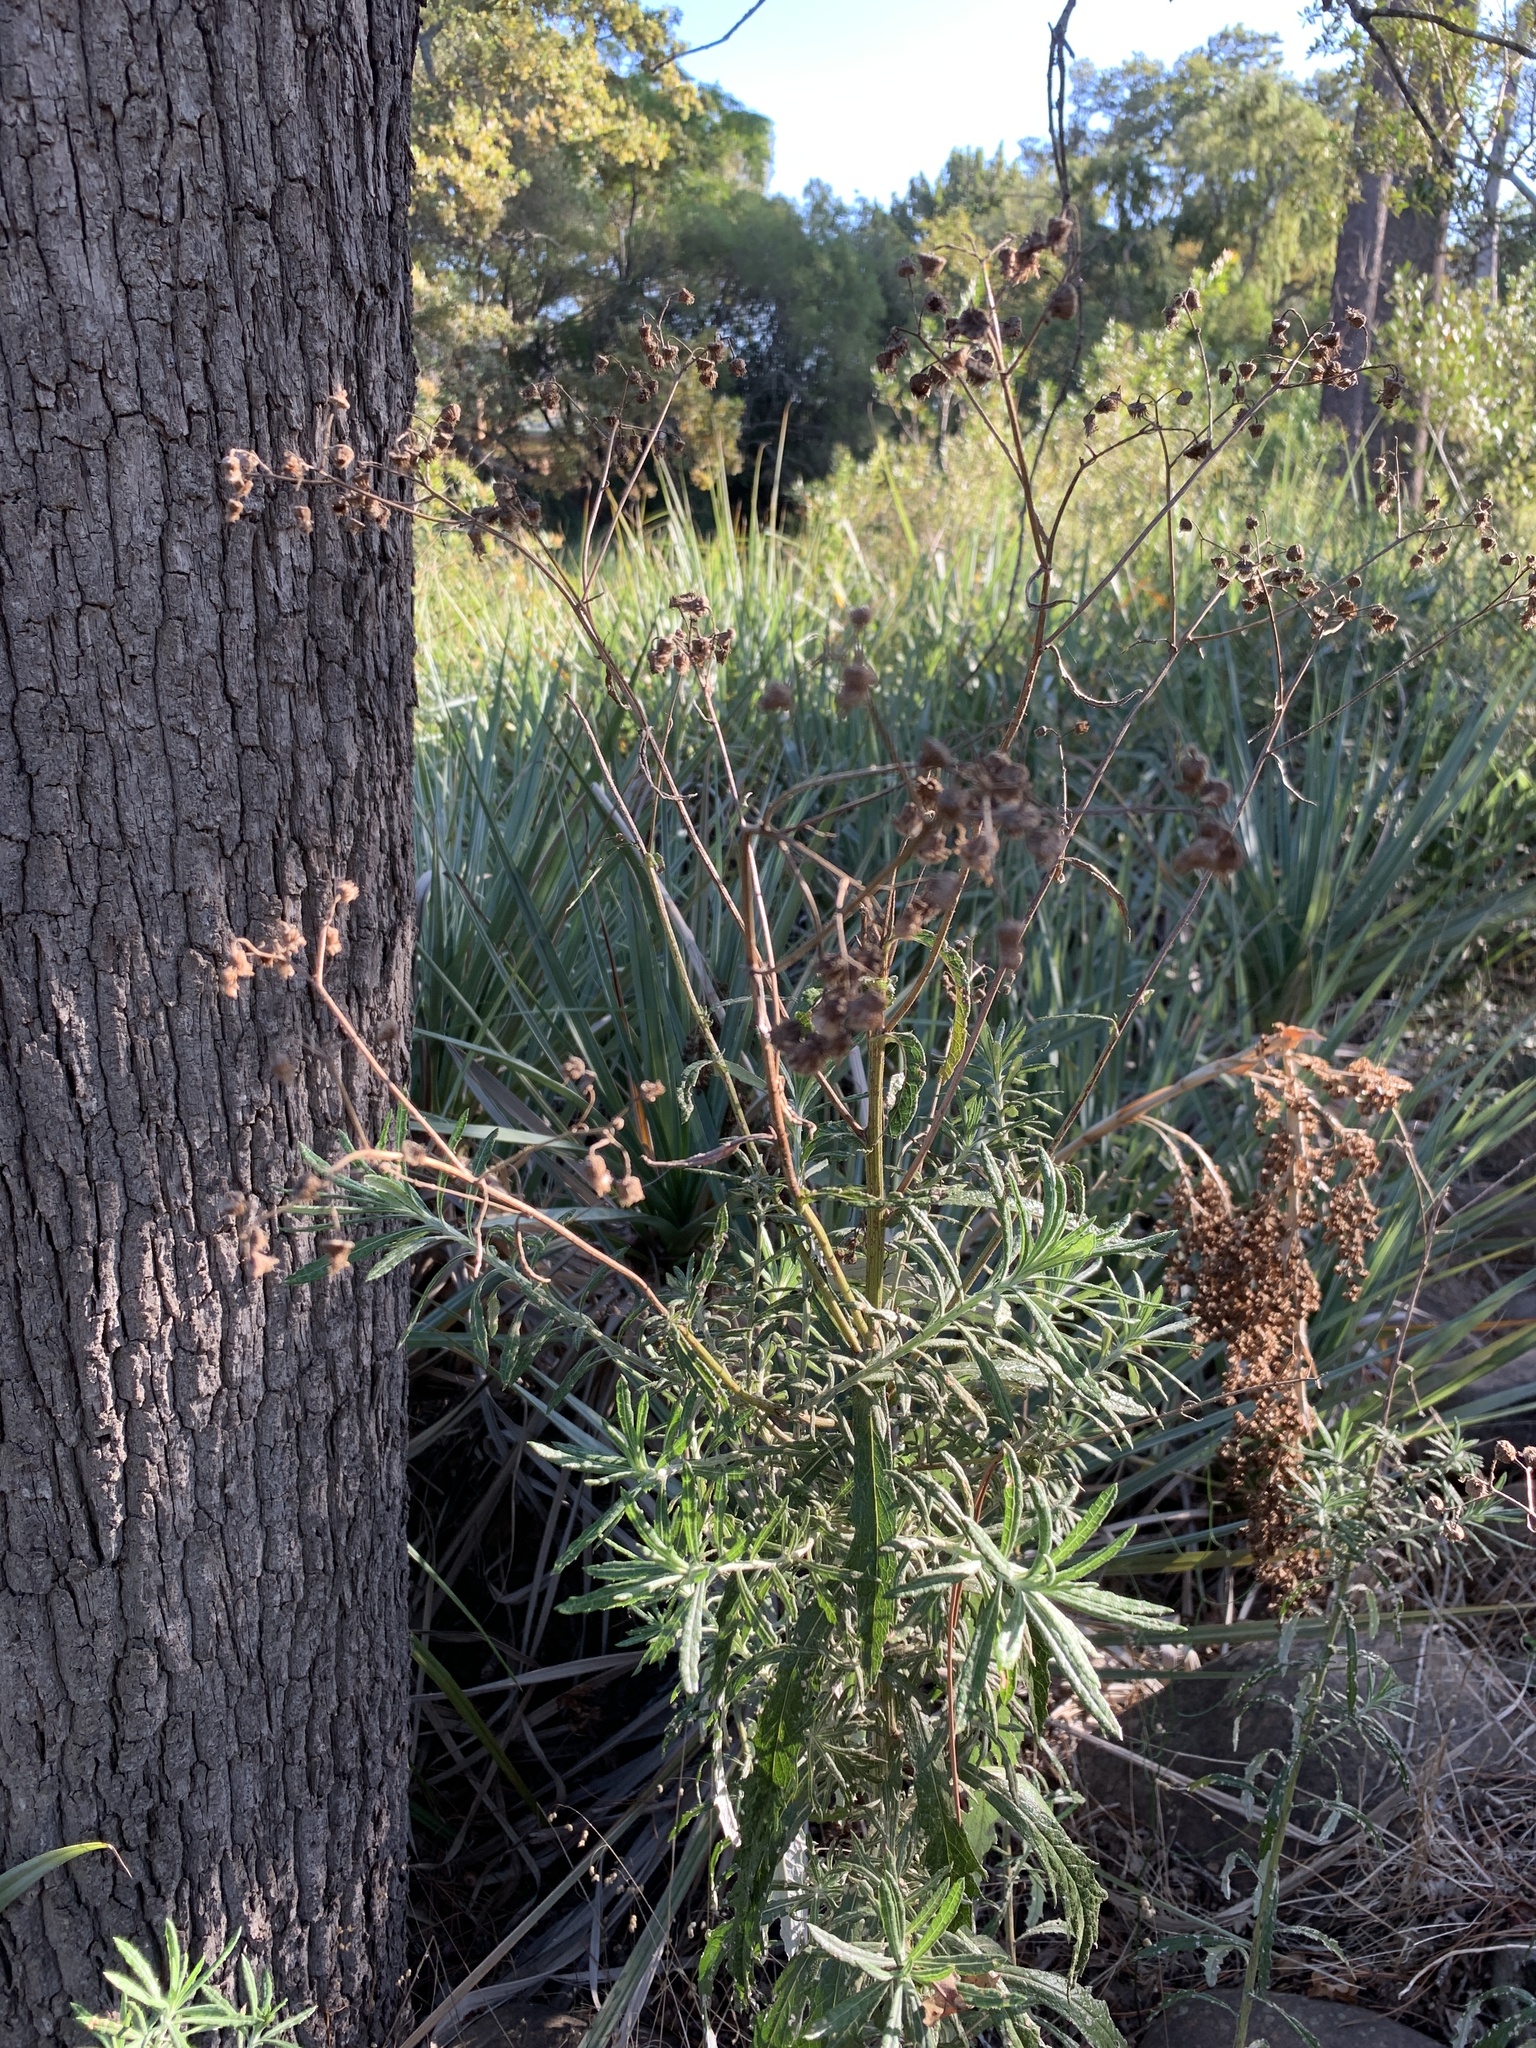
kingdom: Plantae
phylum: Tracheophyta
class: Magnoliopsida
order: Asterales
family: Asteraceae
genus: Senecio
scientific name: Senecio pterophorus
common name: Shoddy ragwort
